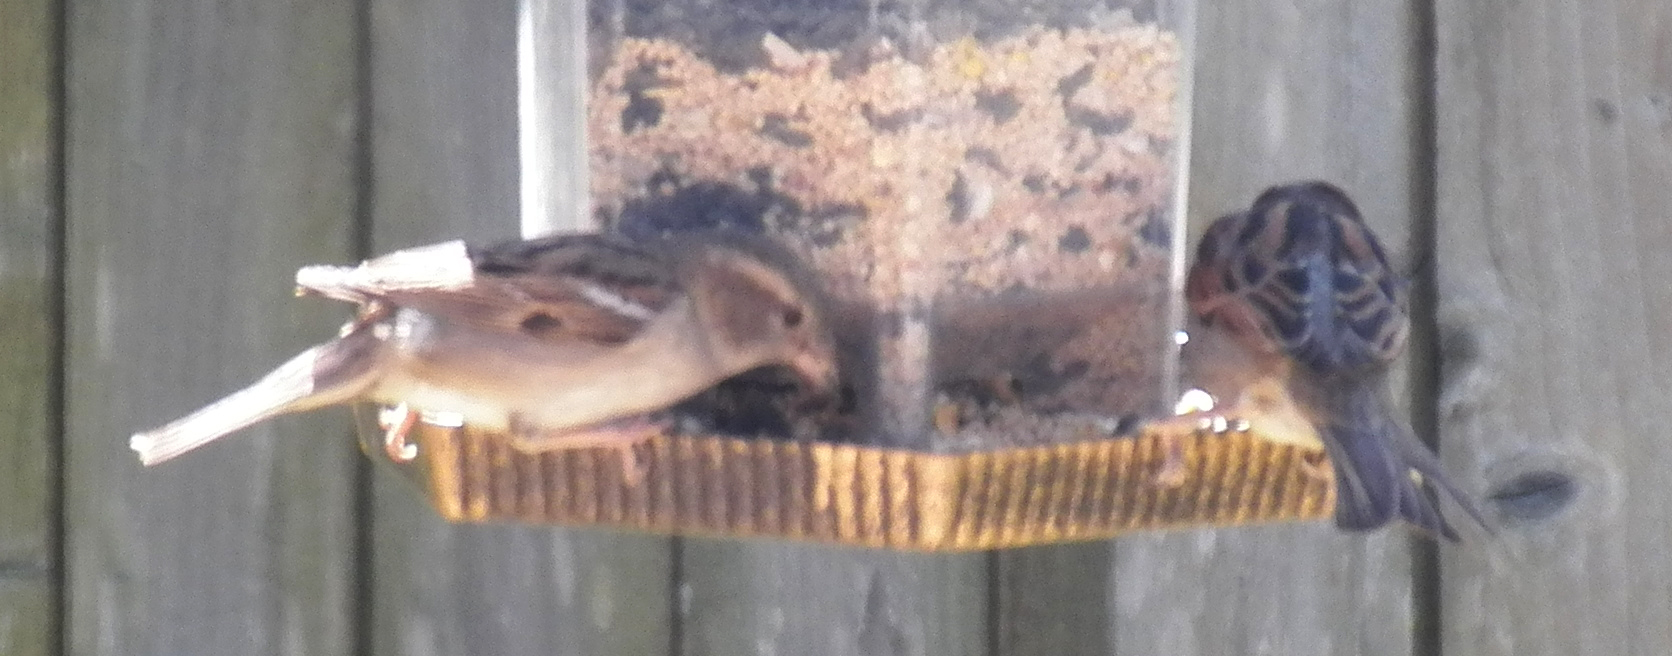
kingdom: Animalia
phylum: Chordata
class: Aves
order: Passeriformes
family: Passeridae
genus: Passer
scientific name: Passer domesticus
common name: House sparrow
